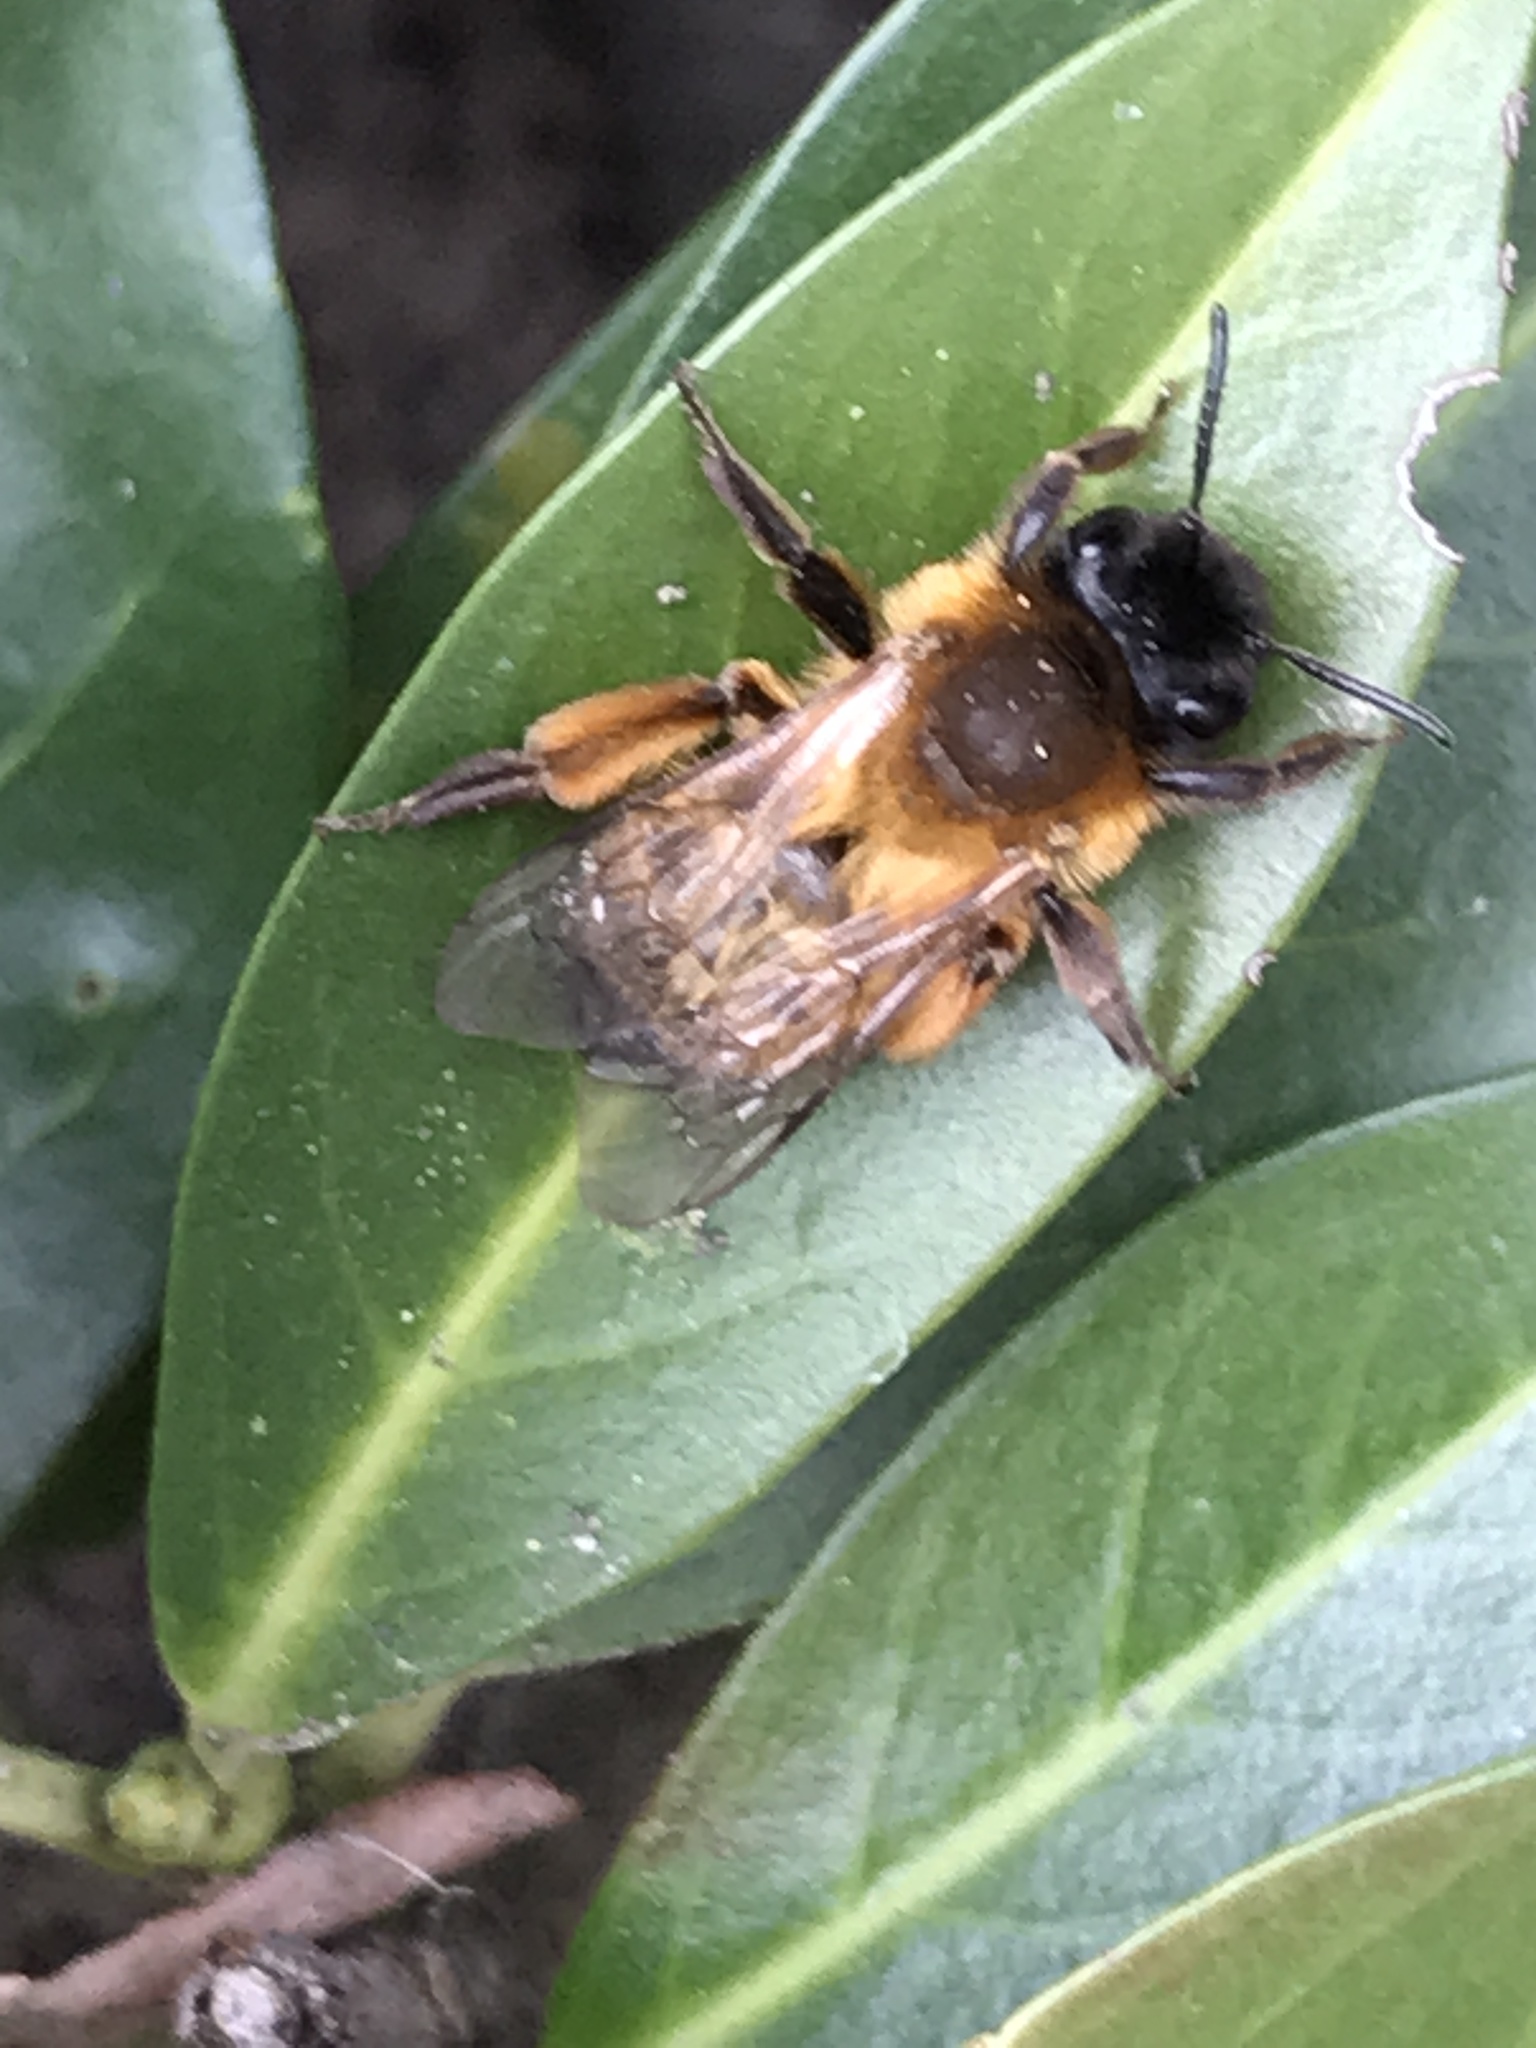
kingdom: Animalia
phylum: Arthropoda
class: Insecta
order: Hymenoptera
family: Andrenidae
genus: Andrena
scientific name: Andrena nigroaenea
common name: Buffish mining bee
